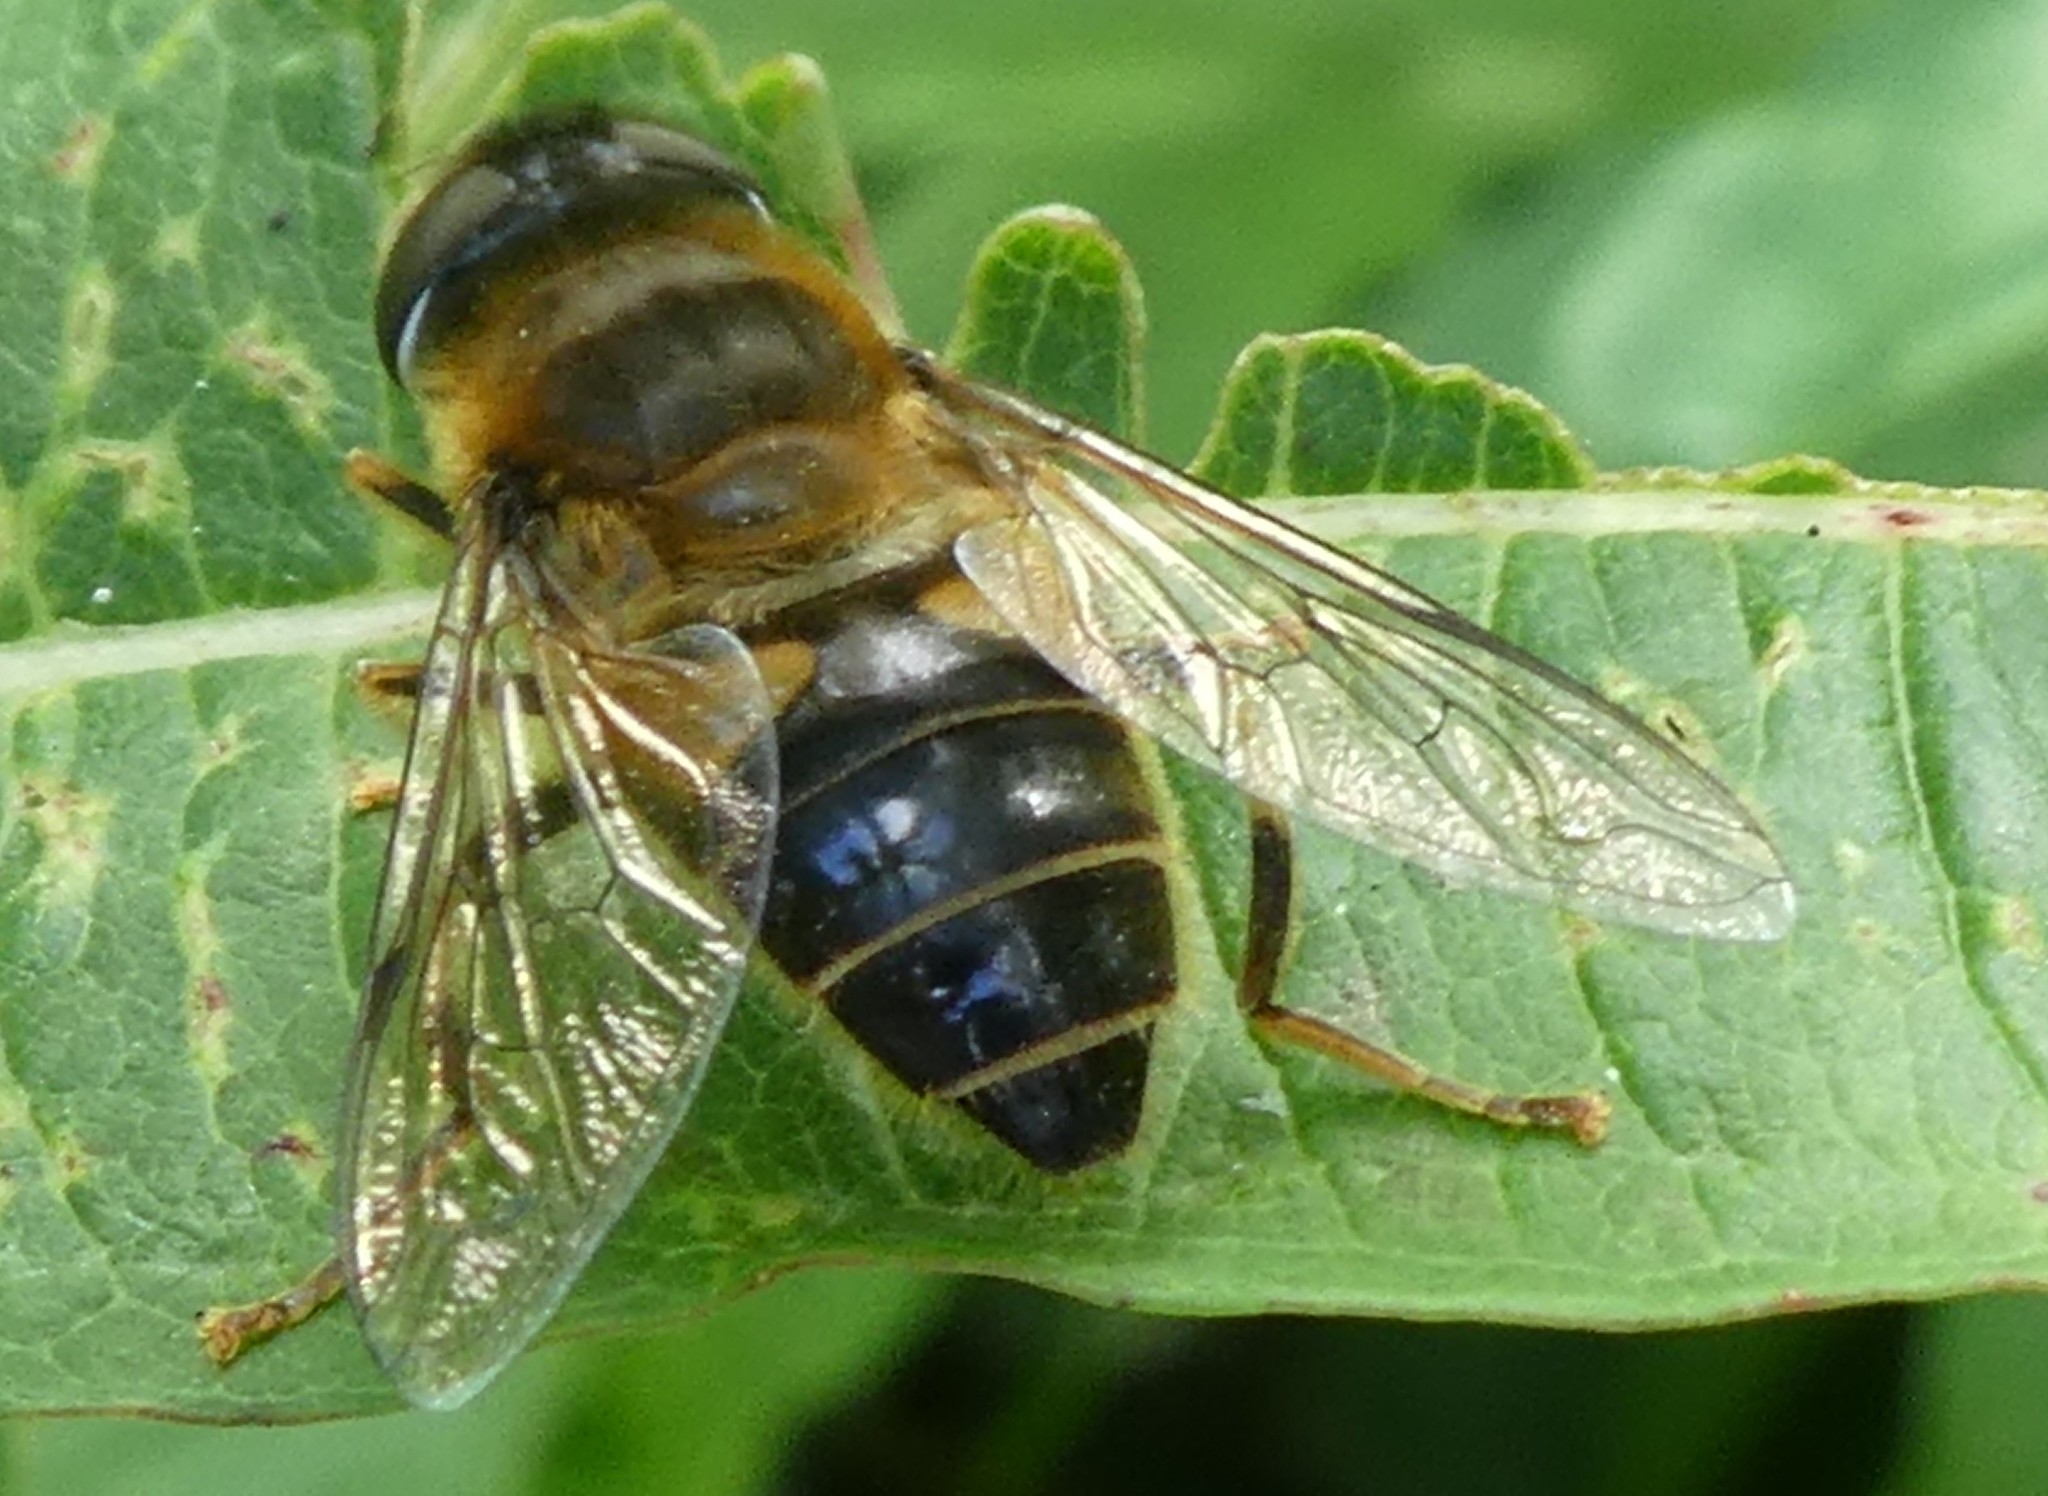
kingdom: Animalia
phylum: Arthropoda
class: Insecta
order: Diptera
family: Syrphidae
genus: Eristalis
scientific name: Eristalis pertinax
